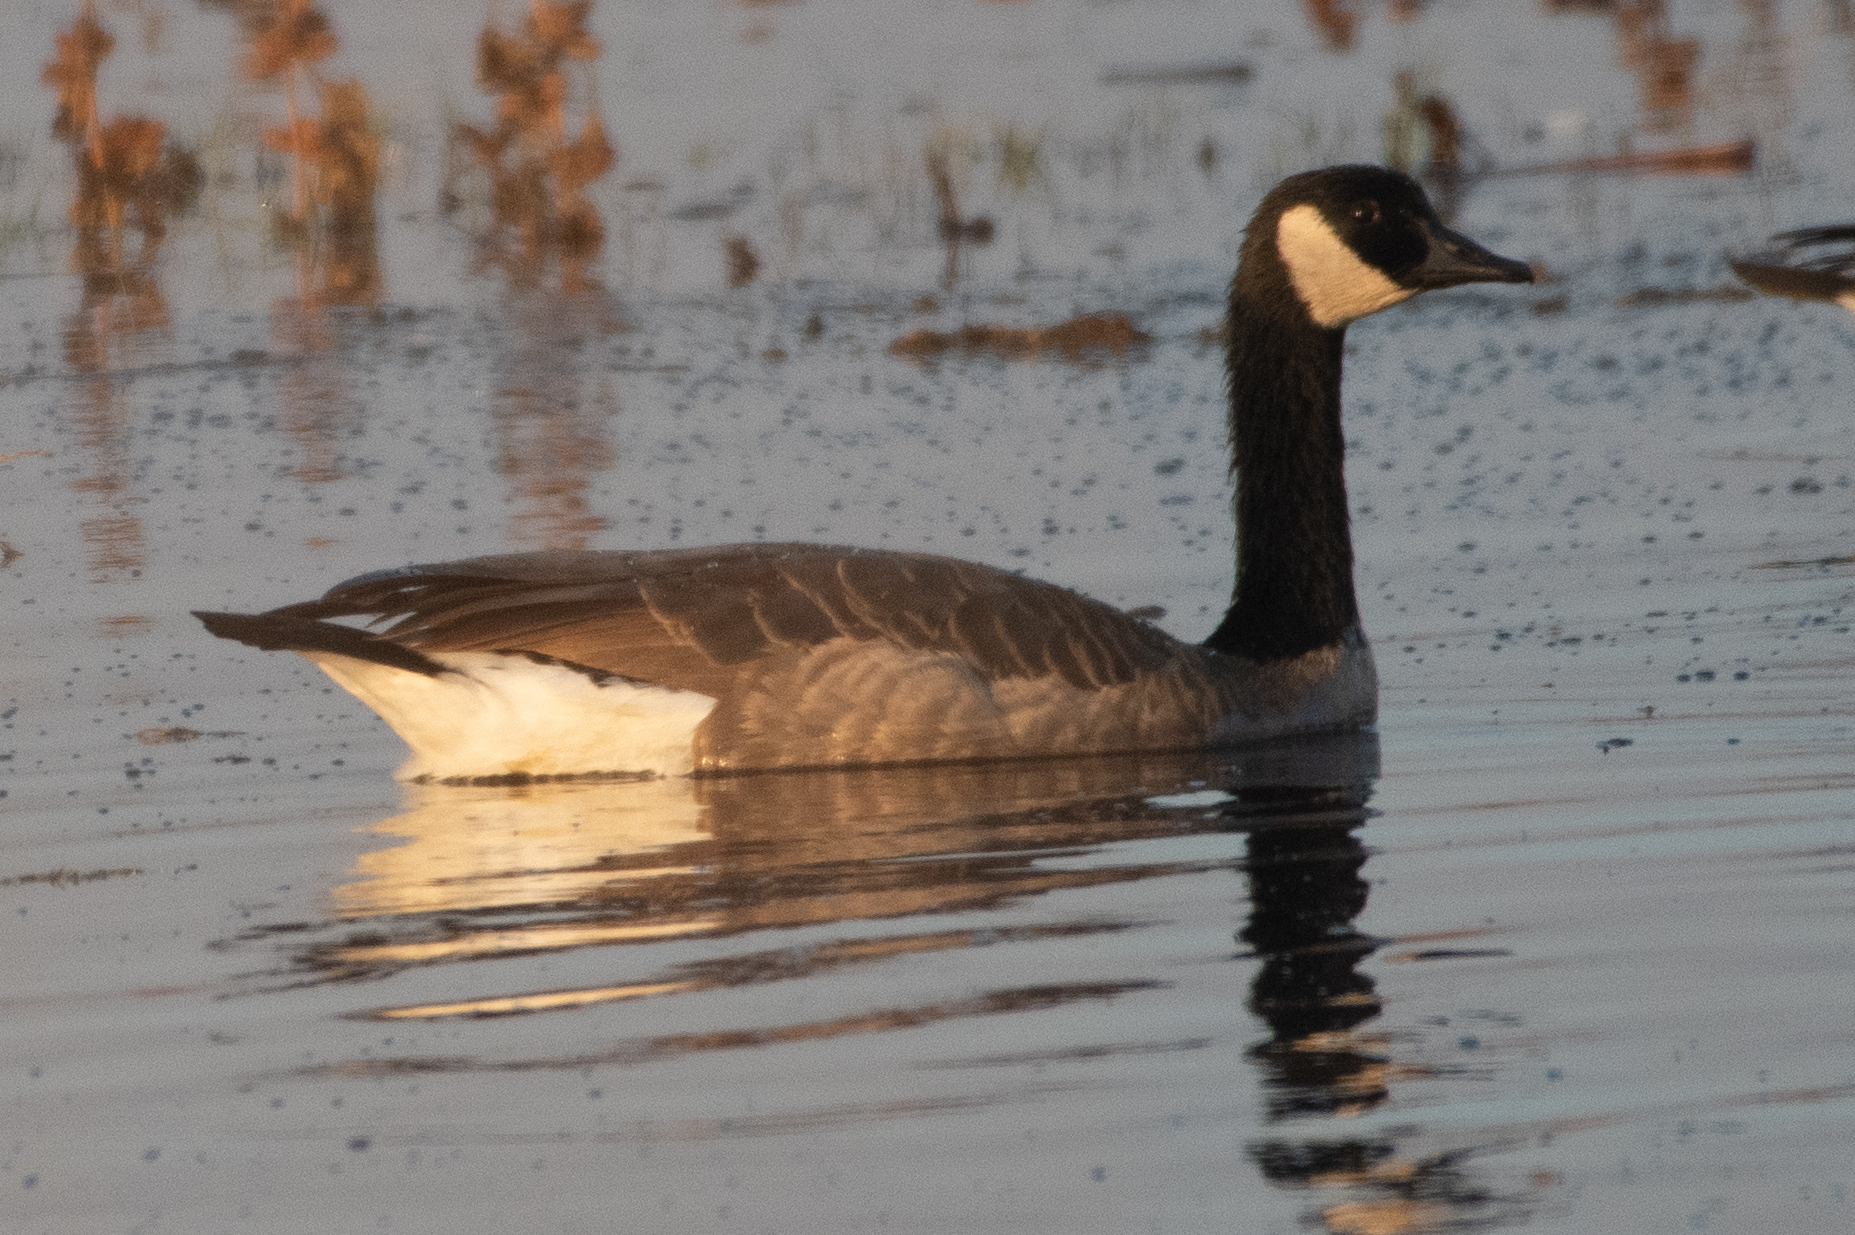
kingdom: Animalia
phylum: Chordata
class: Aves
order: Anseriformes
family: Anatidae
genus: Branta
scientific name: Branta canadensis
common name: Canada goose
